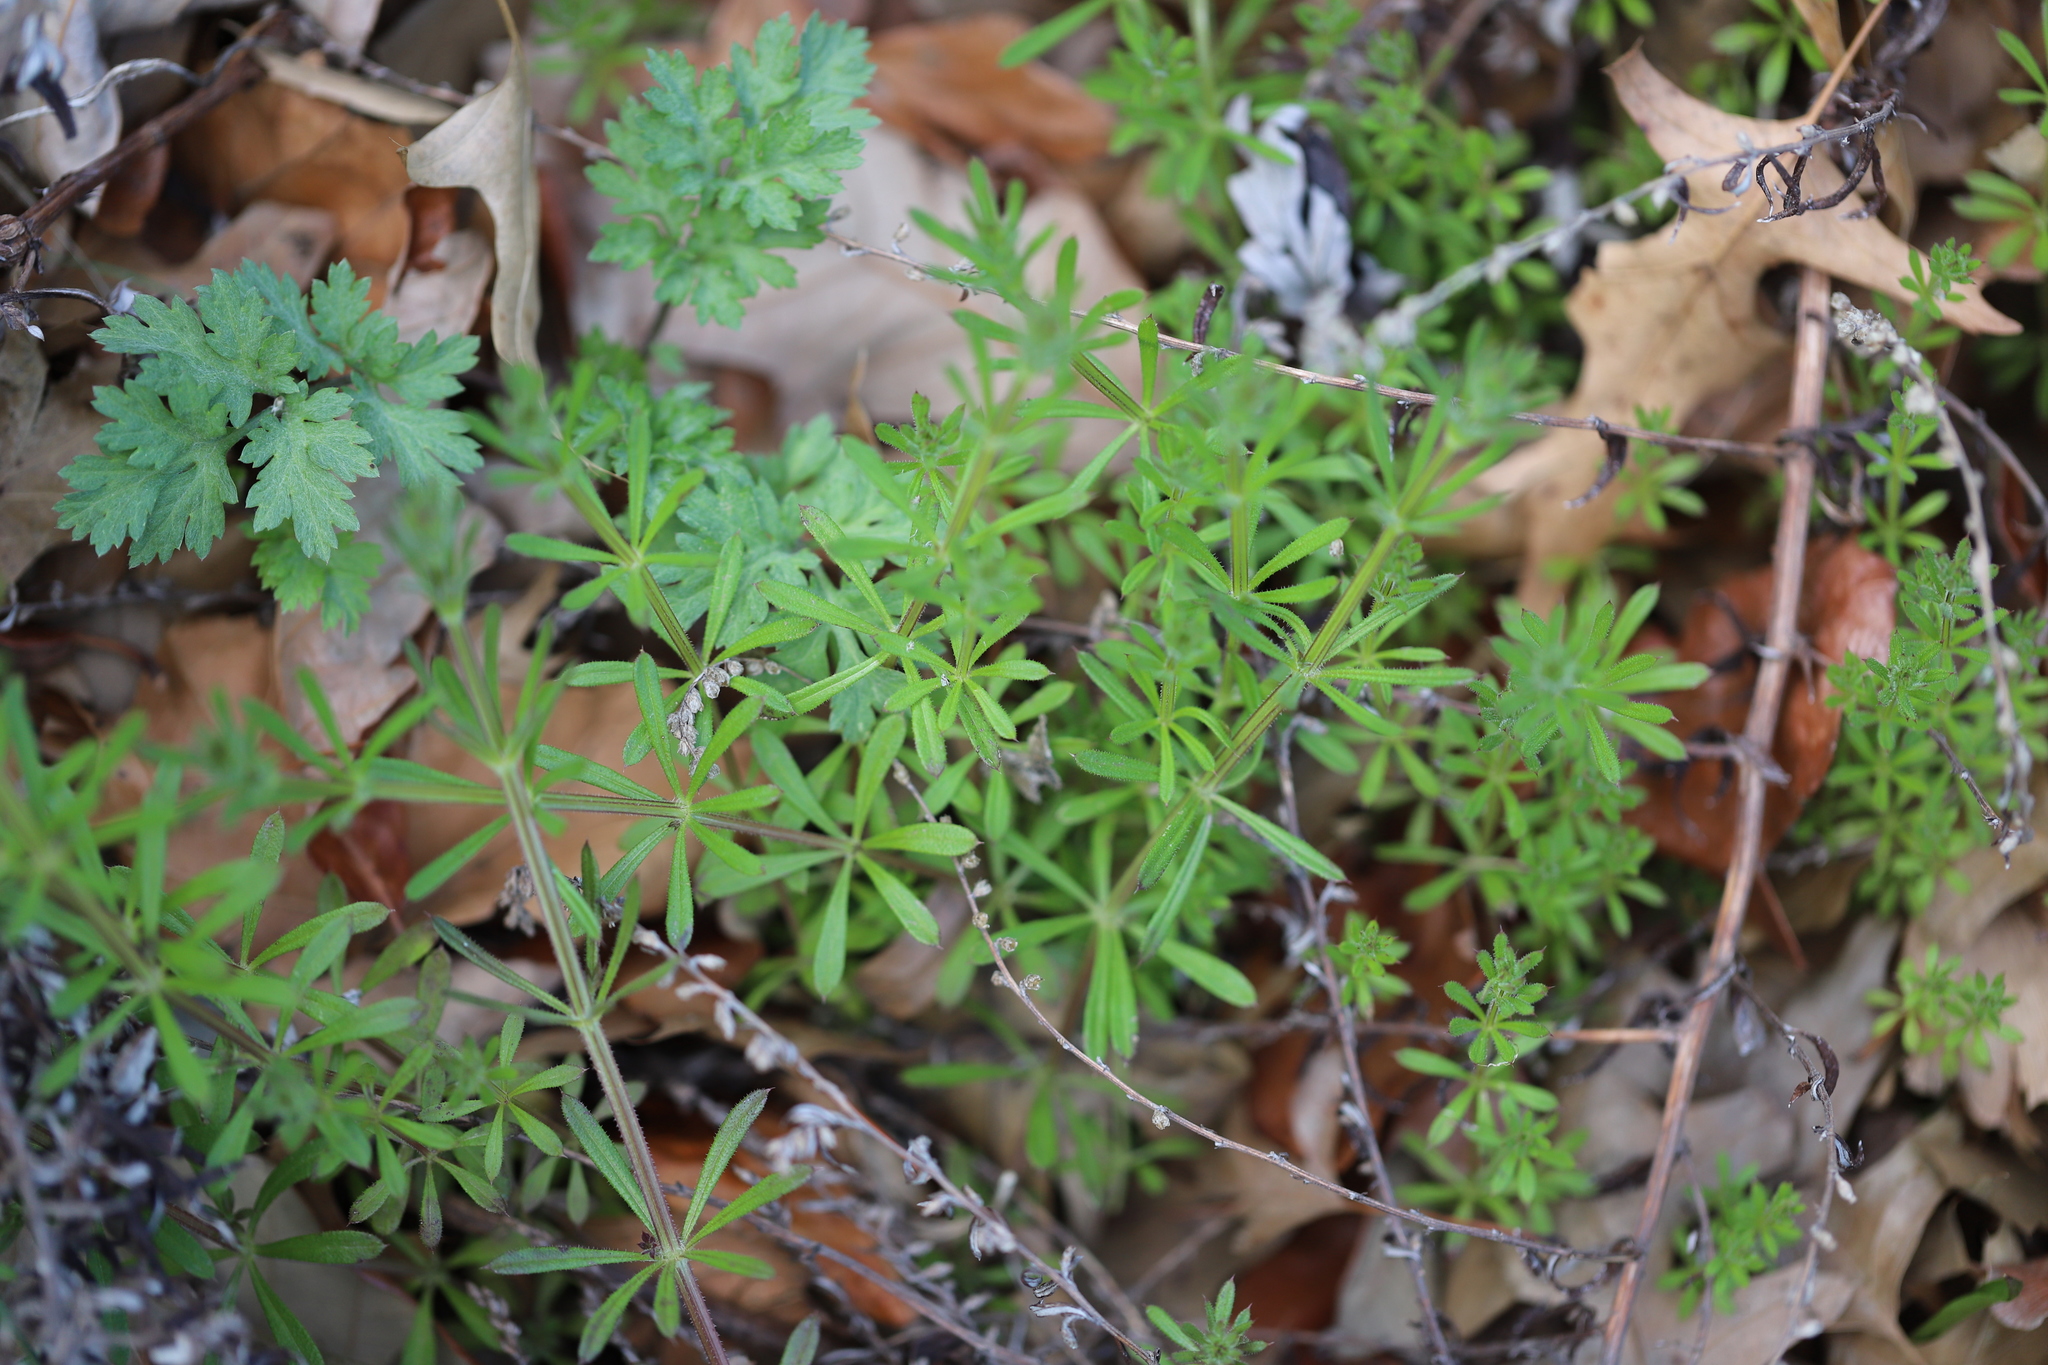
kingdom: Plantae
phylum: Tracheophyta
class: Magnoliopsida
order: Gentianales
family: Rubiaceae
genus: Galium
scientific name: Galium aparine
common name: Cleavers
